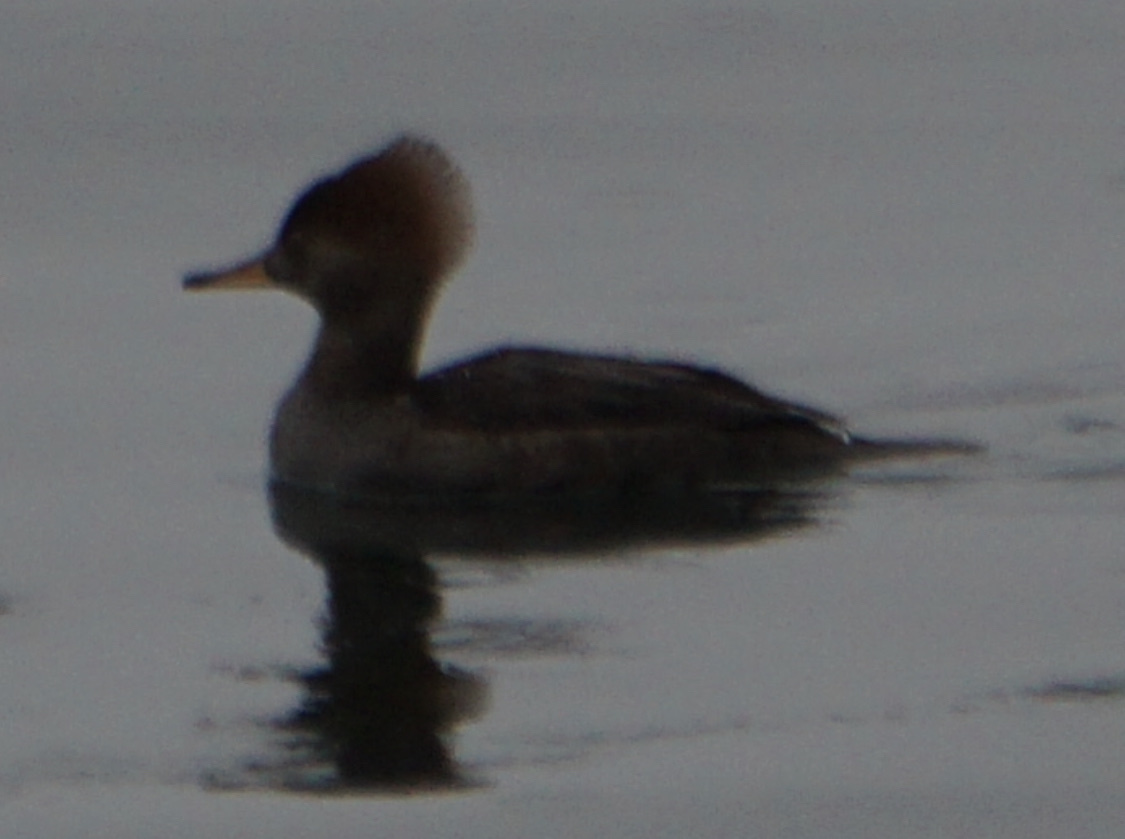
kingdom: Animalia
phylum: Chordata
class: Aves
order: Anseriformes
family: Anatidae
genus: Mergus
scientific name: Mergus merganser
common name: Common merganser
